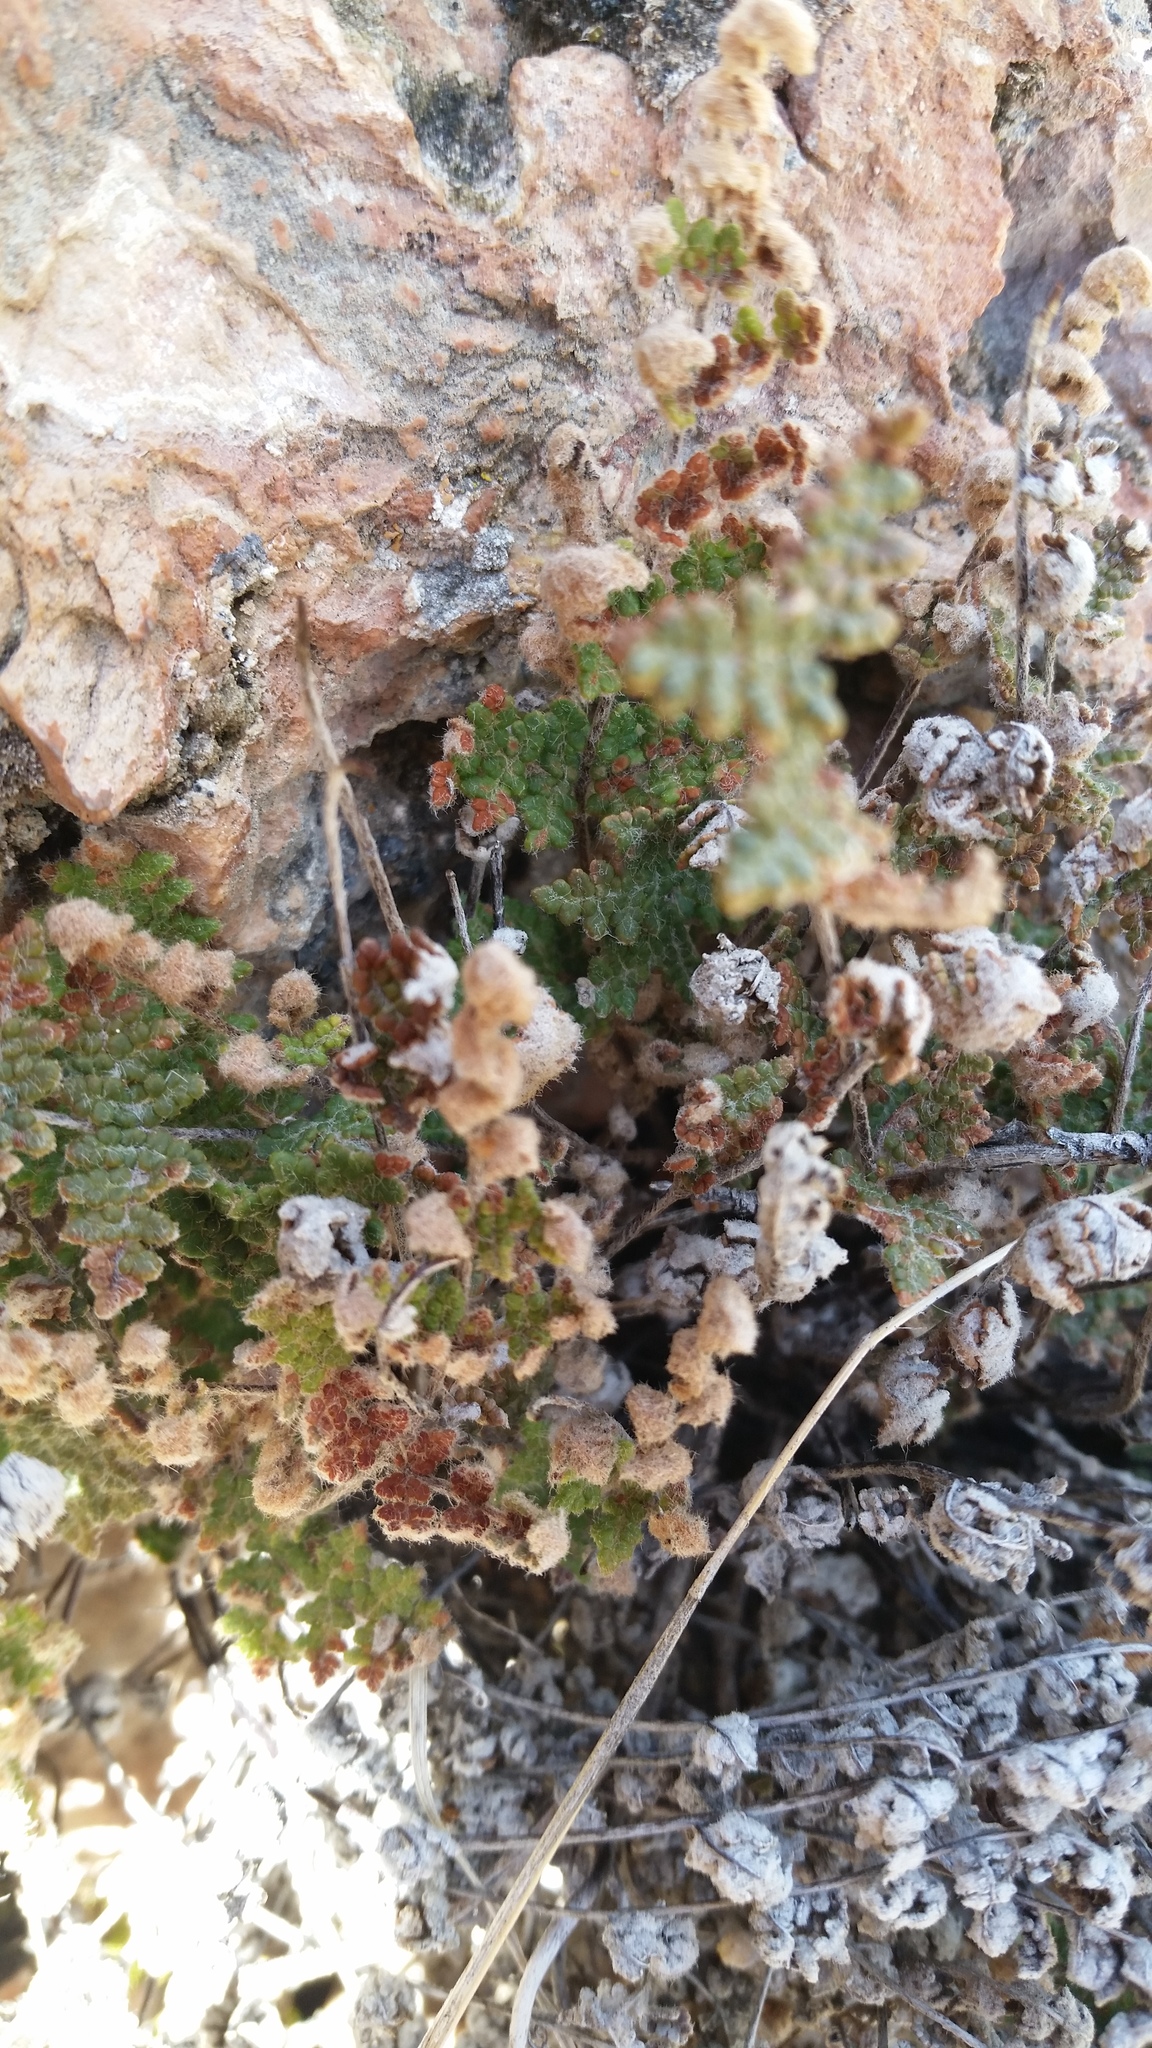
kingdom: Plantae
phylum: Tracheophyta
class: Polypodiopsida
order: Polypodiales
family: Pteridaceae
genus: Myriopteris
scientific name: Myriopteris gracilis
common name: Fee's lip fern
